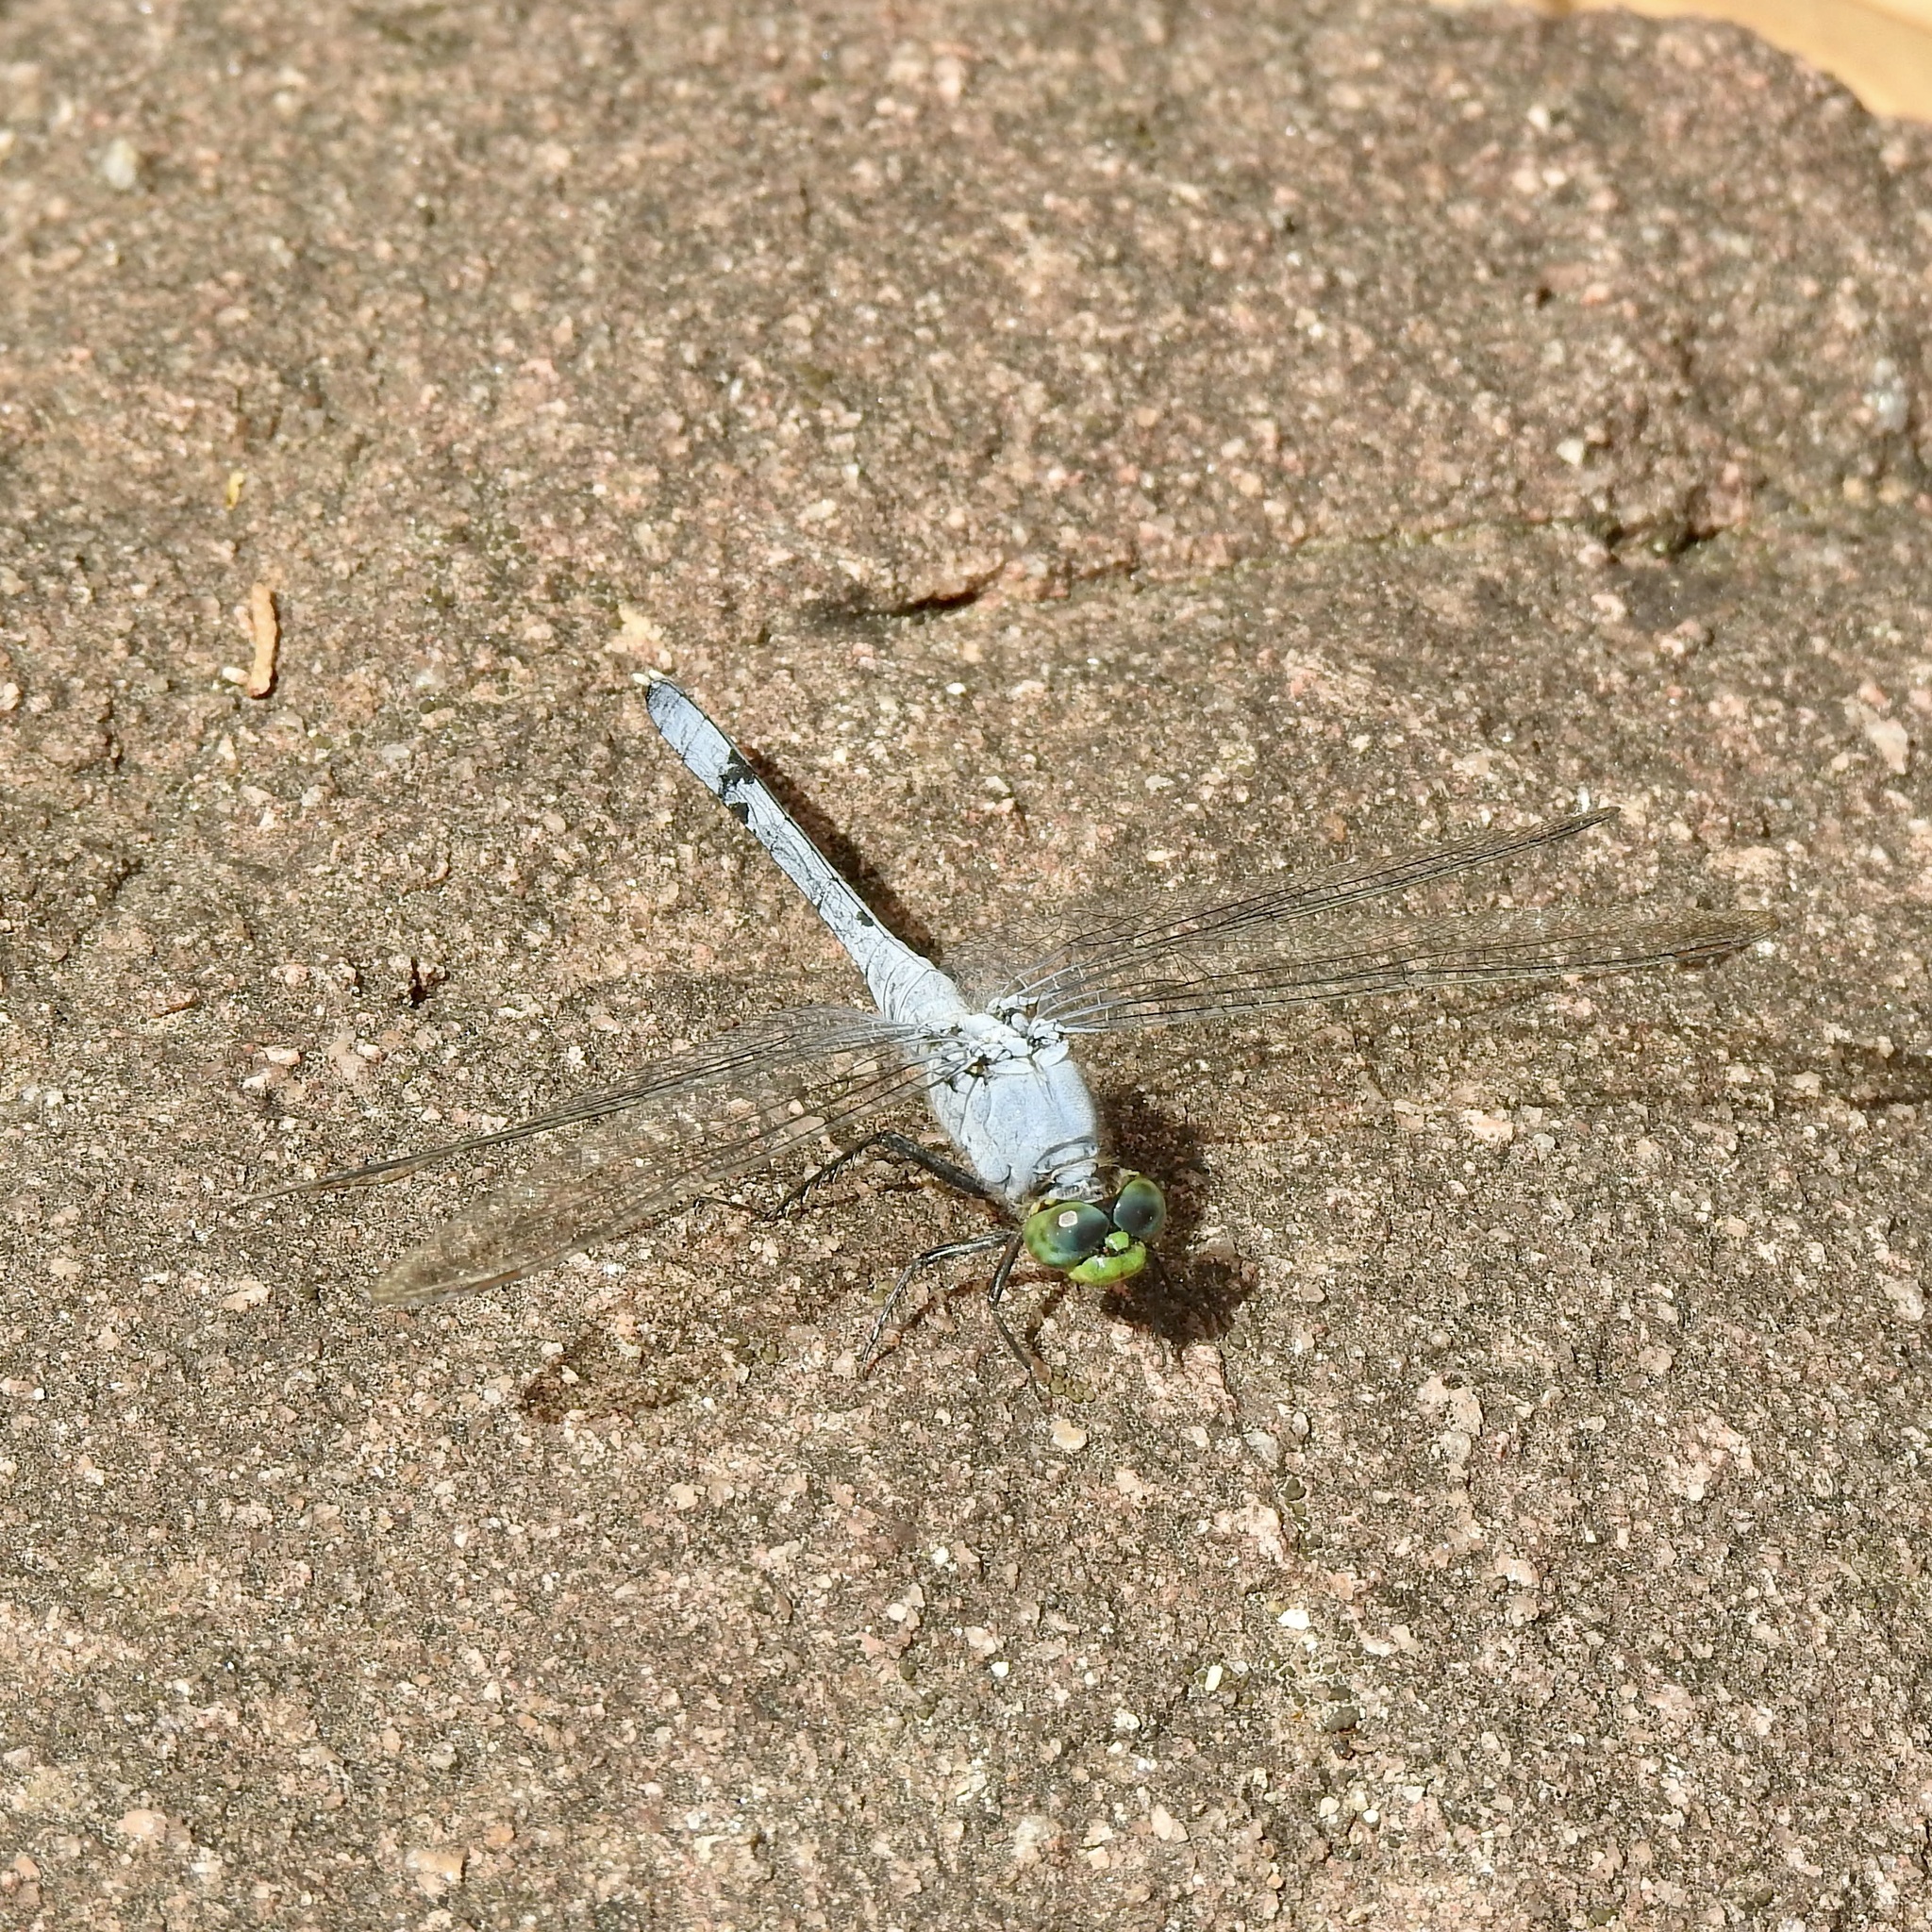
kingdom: Animalia
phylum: Arthropoda
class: Insecta
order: Odonata
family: Libellulidae
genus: Erythemis
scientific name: Erythemis simplicicollis
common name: Eastern pondhawk
